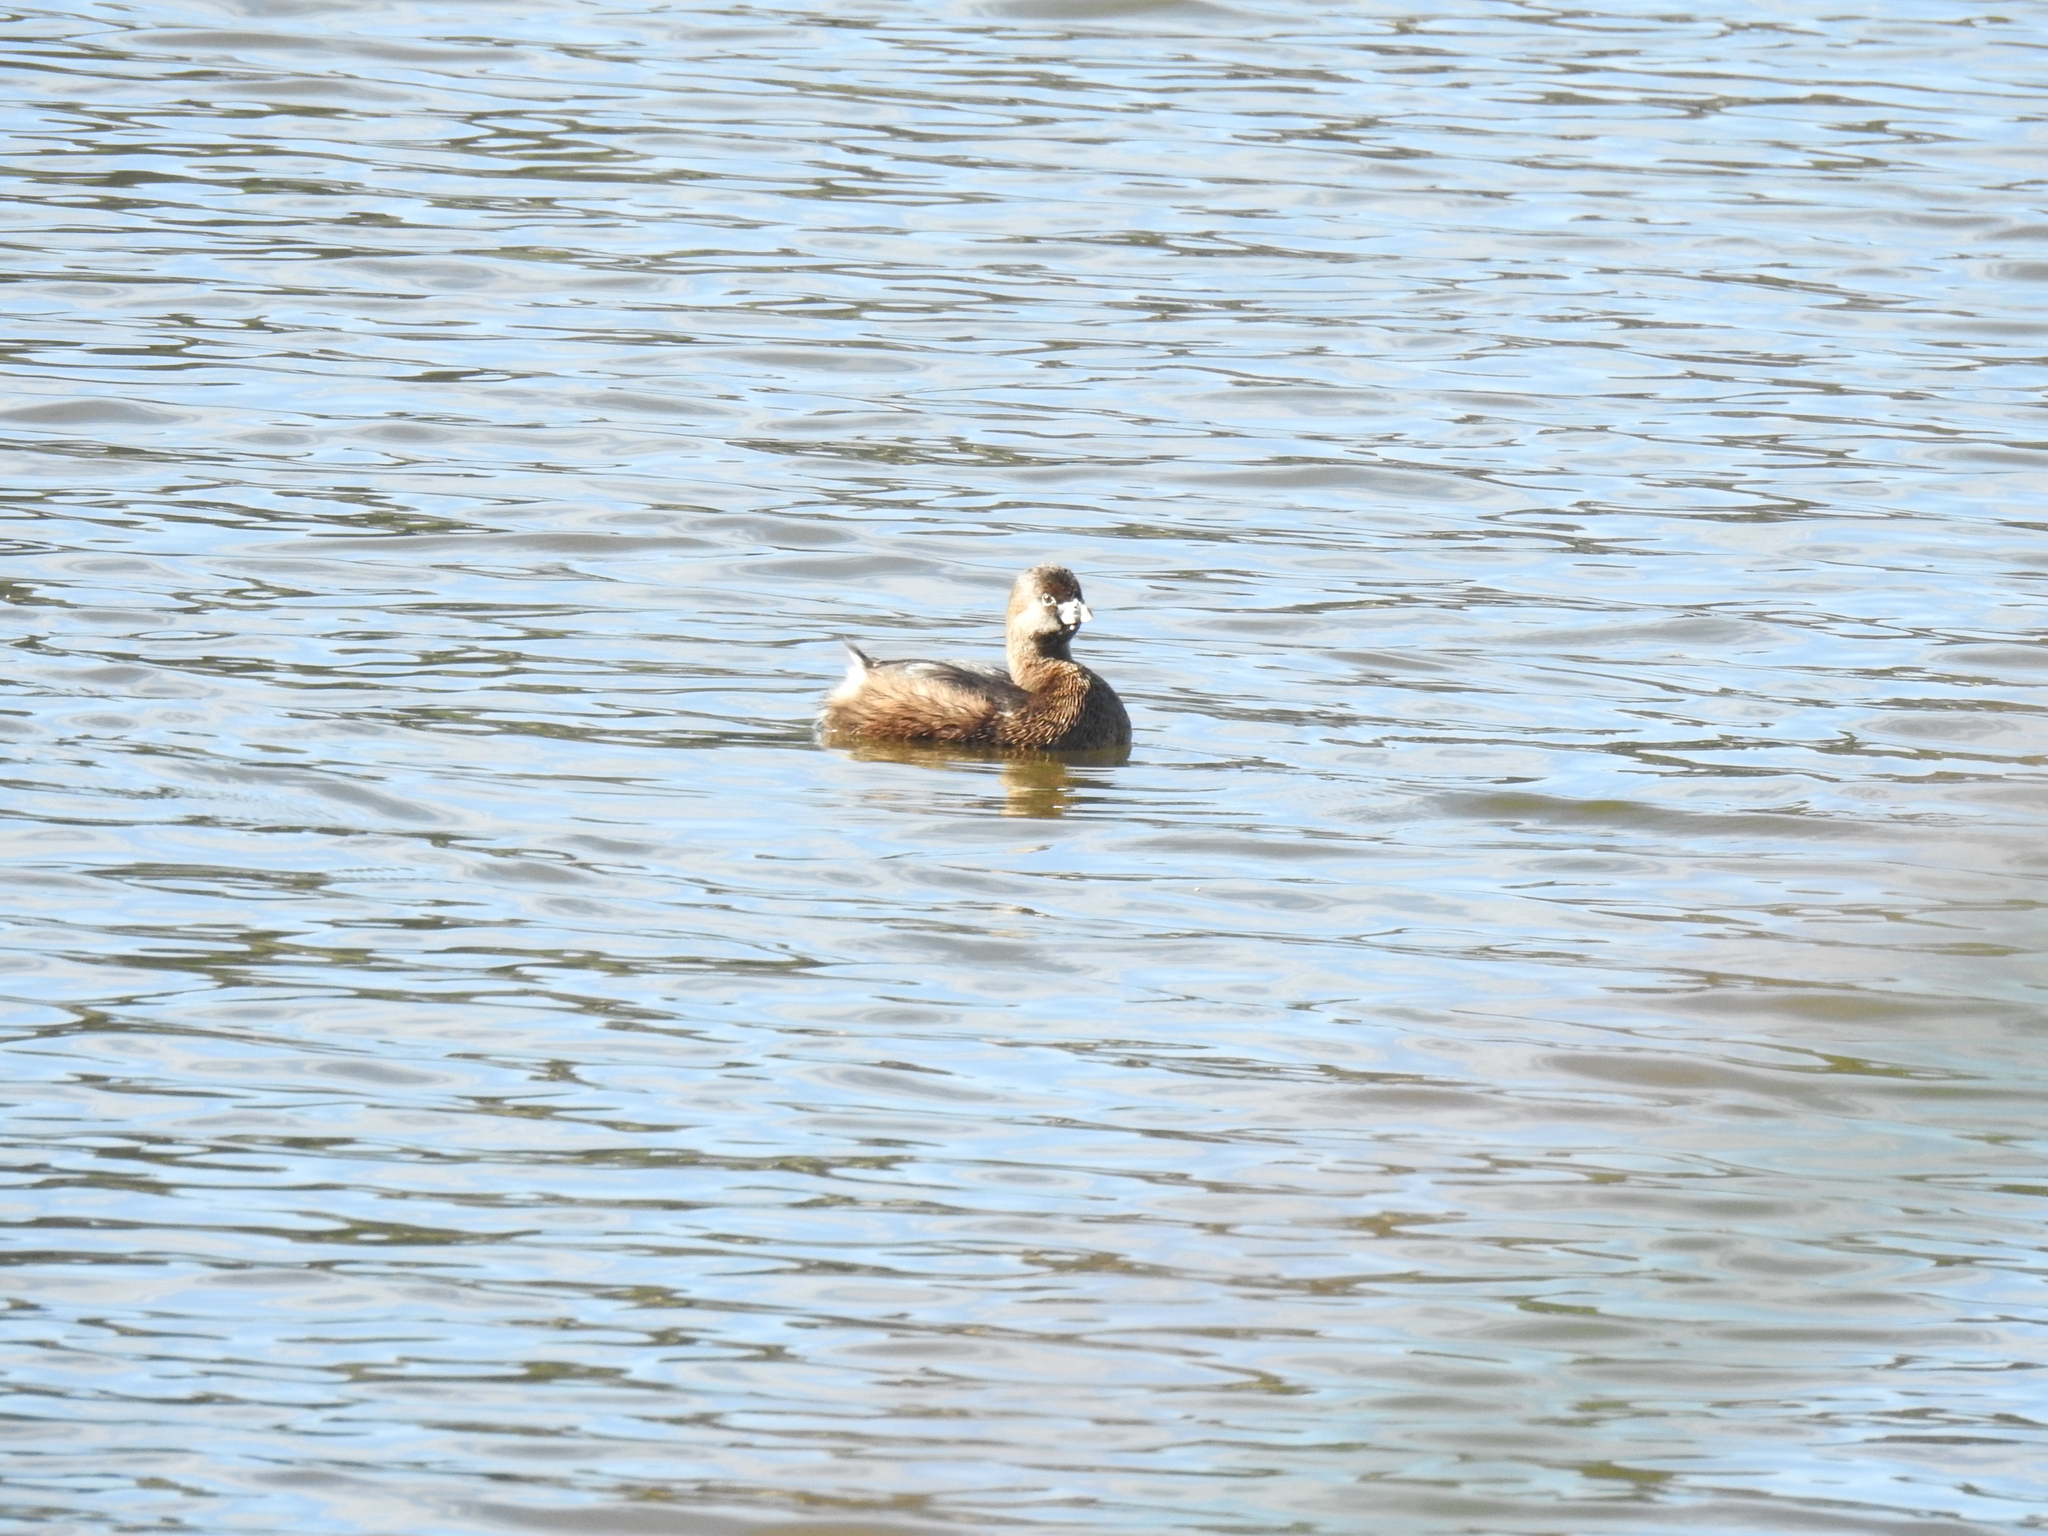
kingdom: Animalia
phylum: Chordata
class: Aves
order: Podicipediformes
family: Podicipedidae
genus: Podilymbus
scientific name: Podilymbus podiceps
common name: Pied-billed grebe
